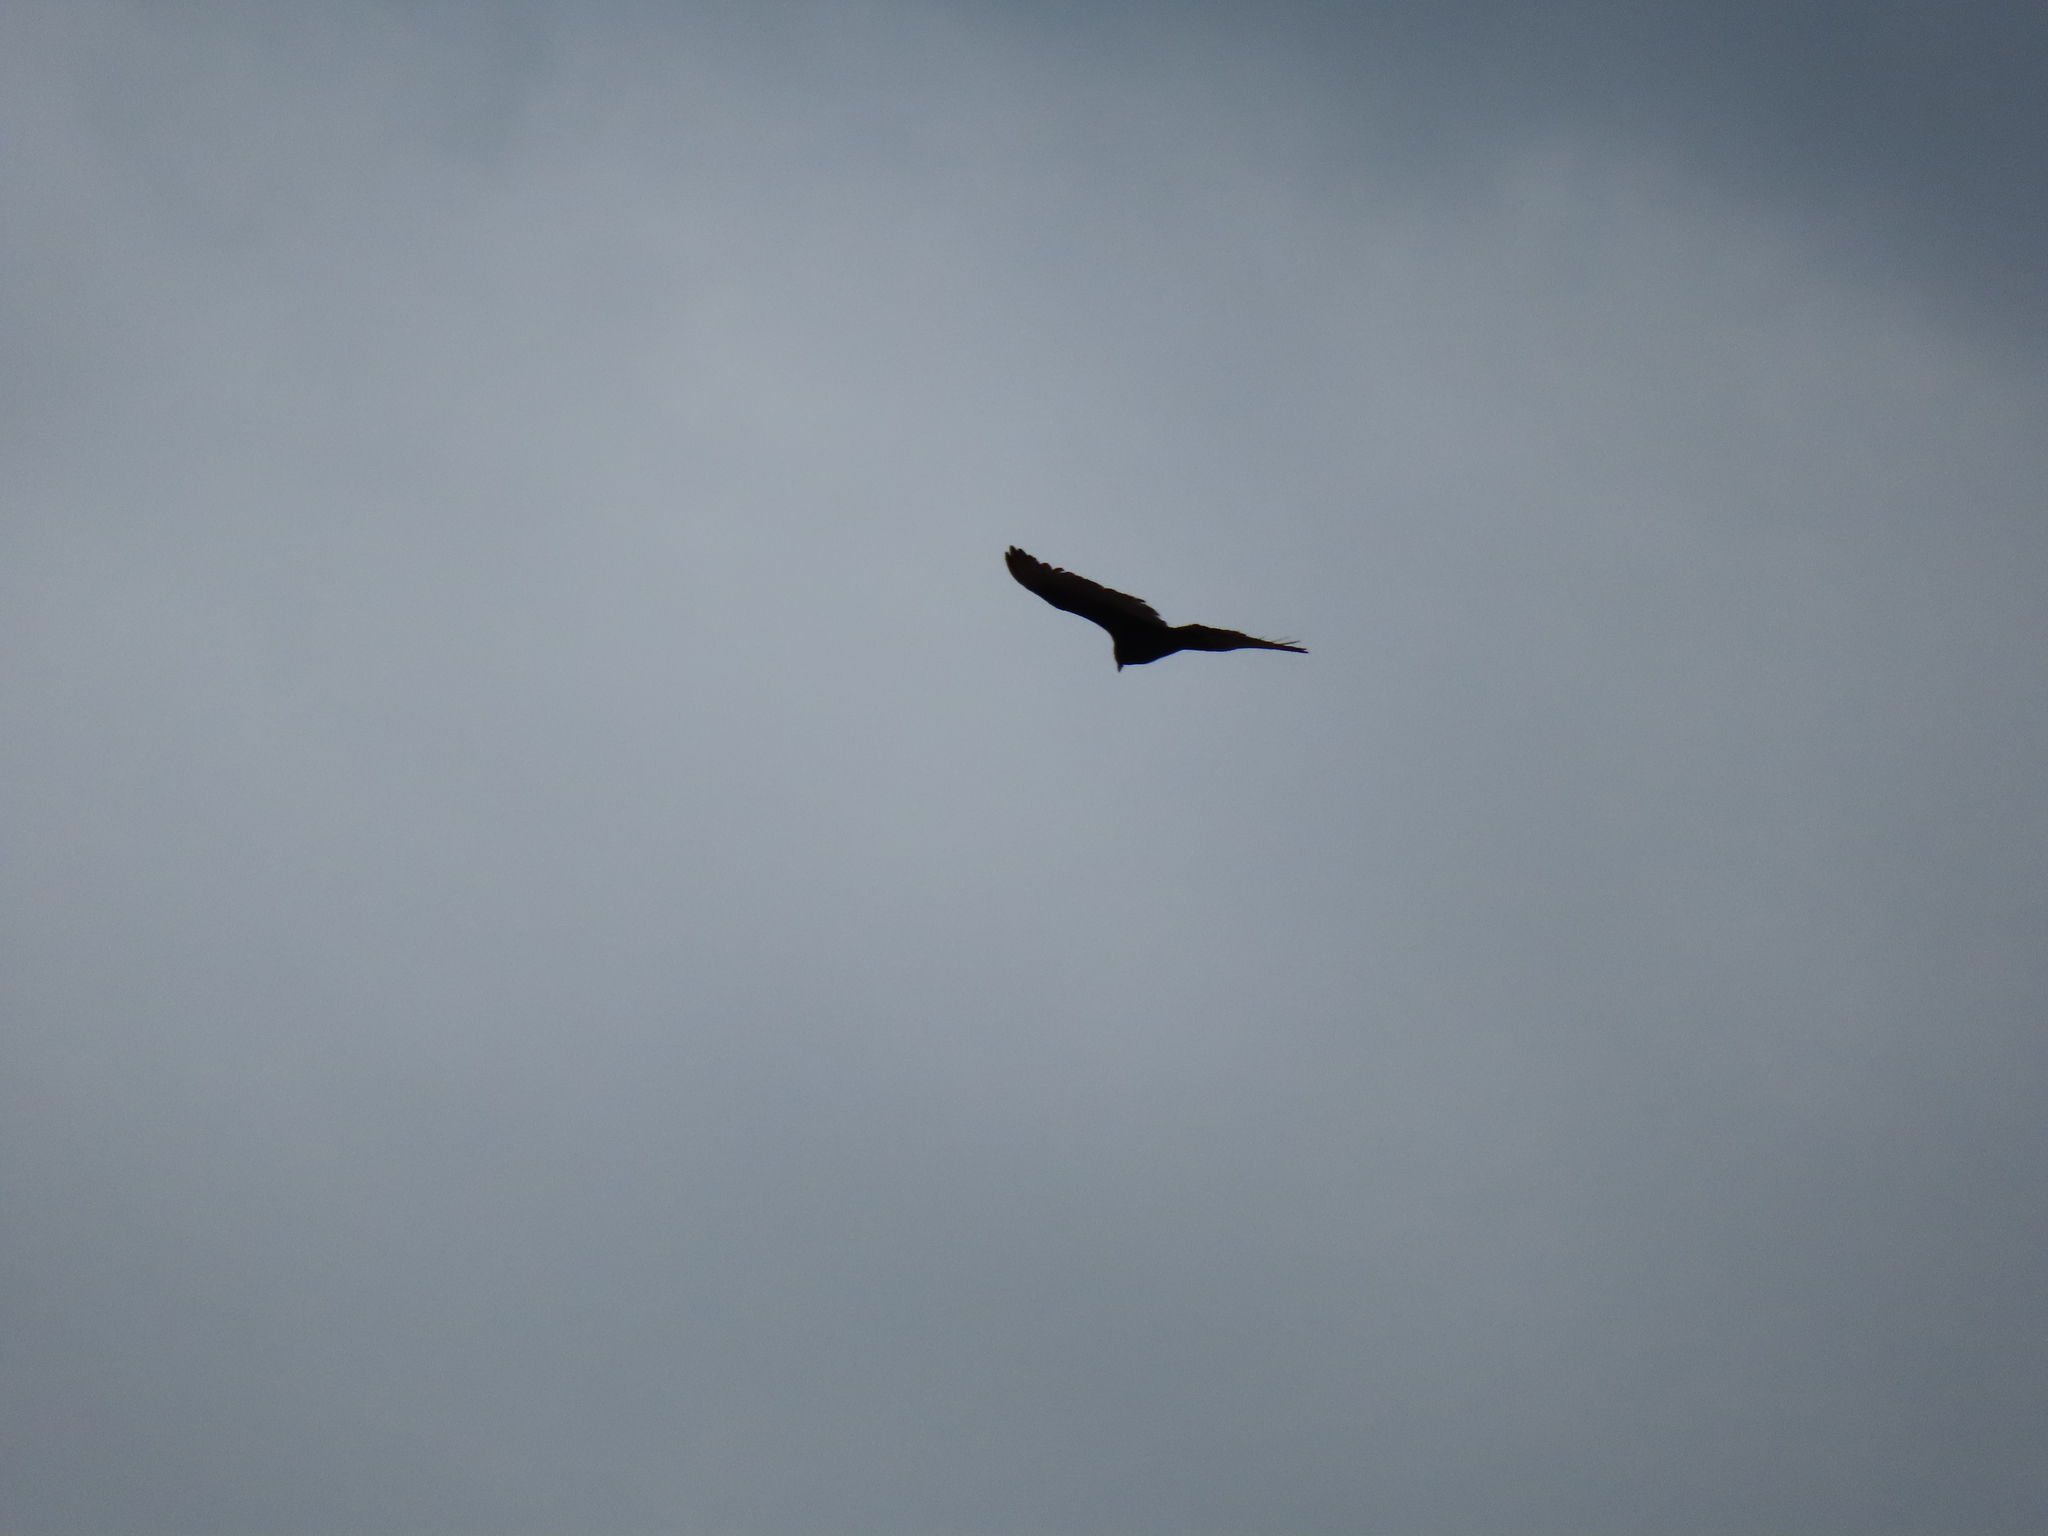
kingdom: Animalia
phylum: Chordata
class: Aves
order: Accipitriformes
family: Cathartidae
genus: Cathartes
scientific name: Cathartes aura
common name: Turkey vulture
